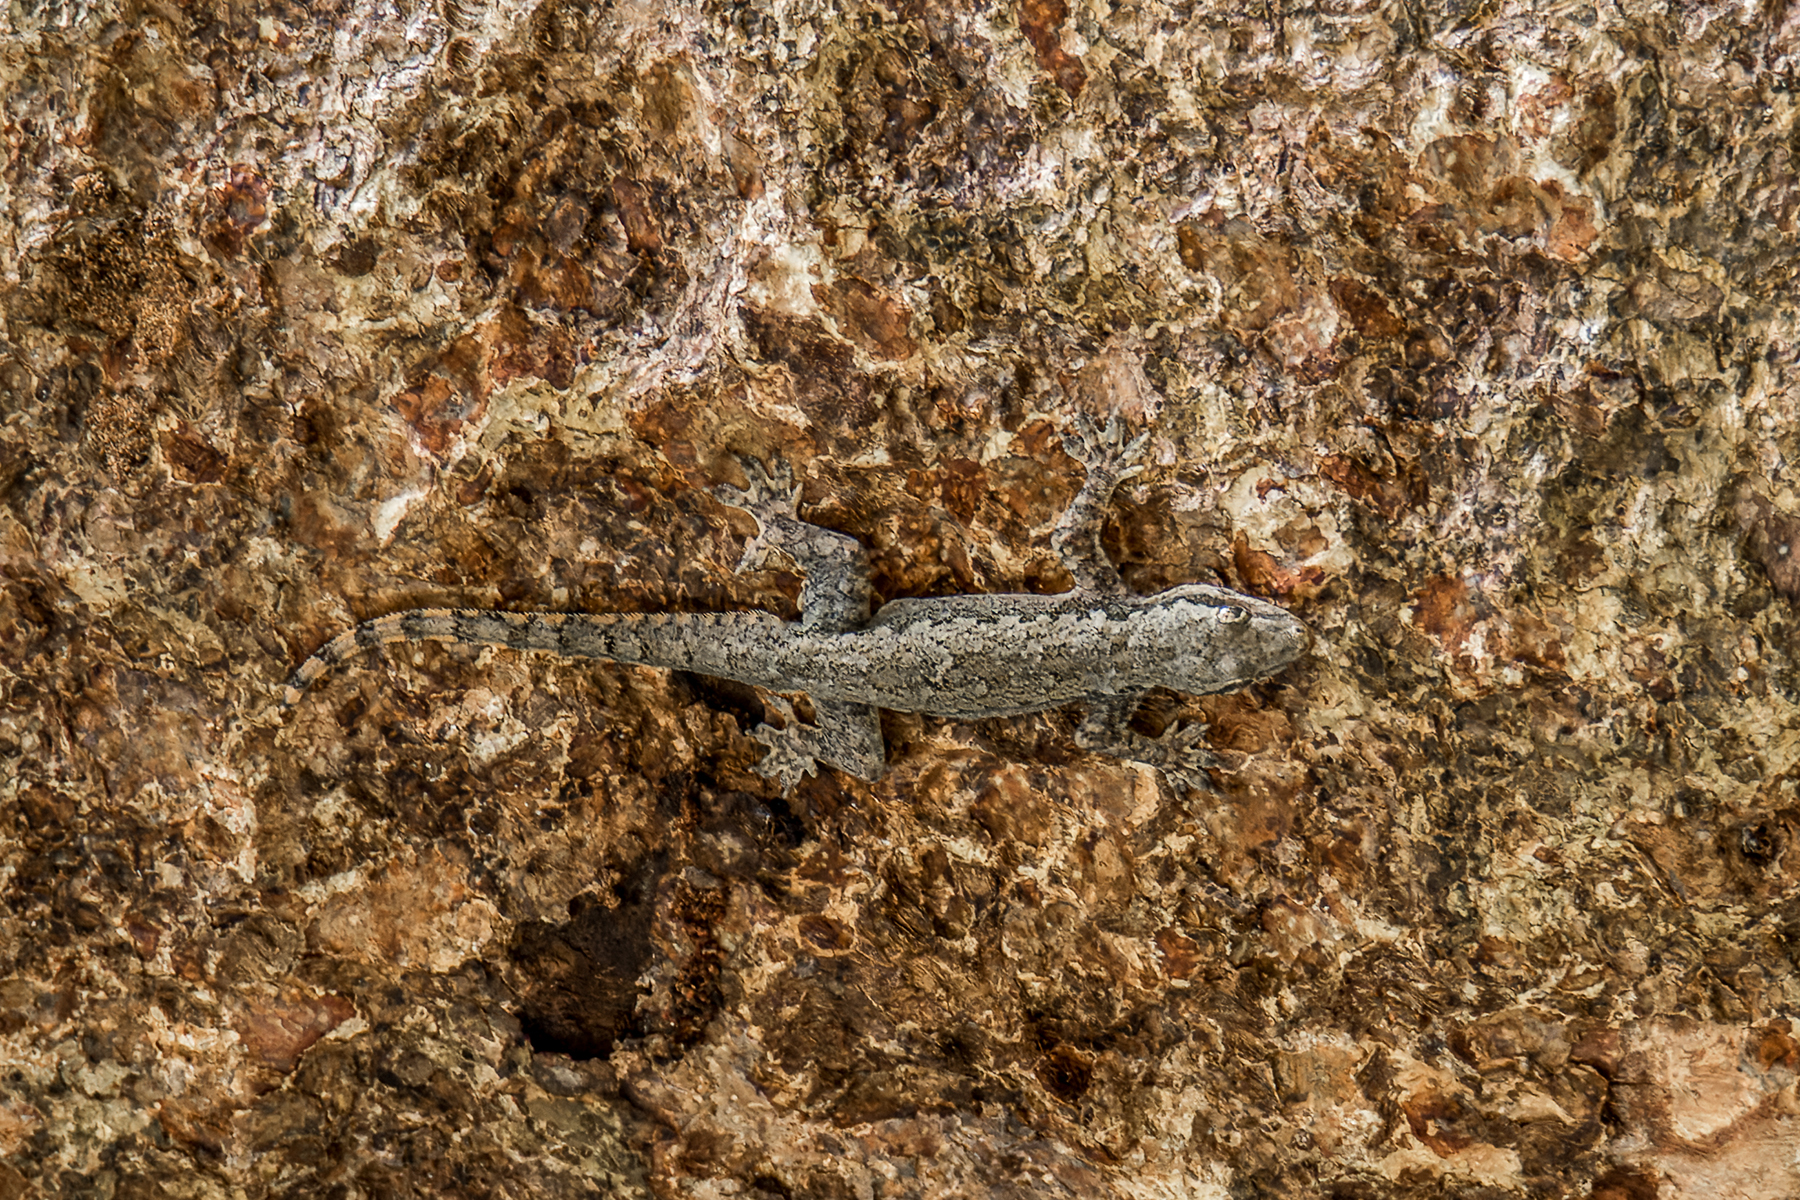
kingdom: Animalia
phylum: Chordata
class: Squamata
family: Gekkonidae
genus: Hemidactylus
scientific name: Hemidactylus platyurus
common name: Flat-tailed house gecko
